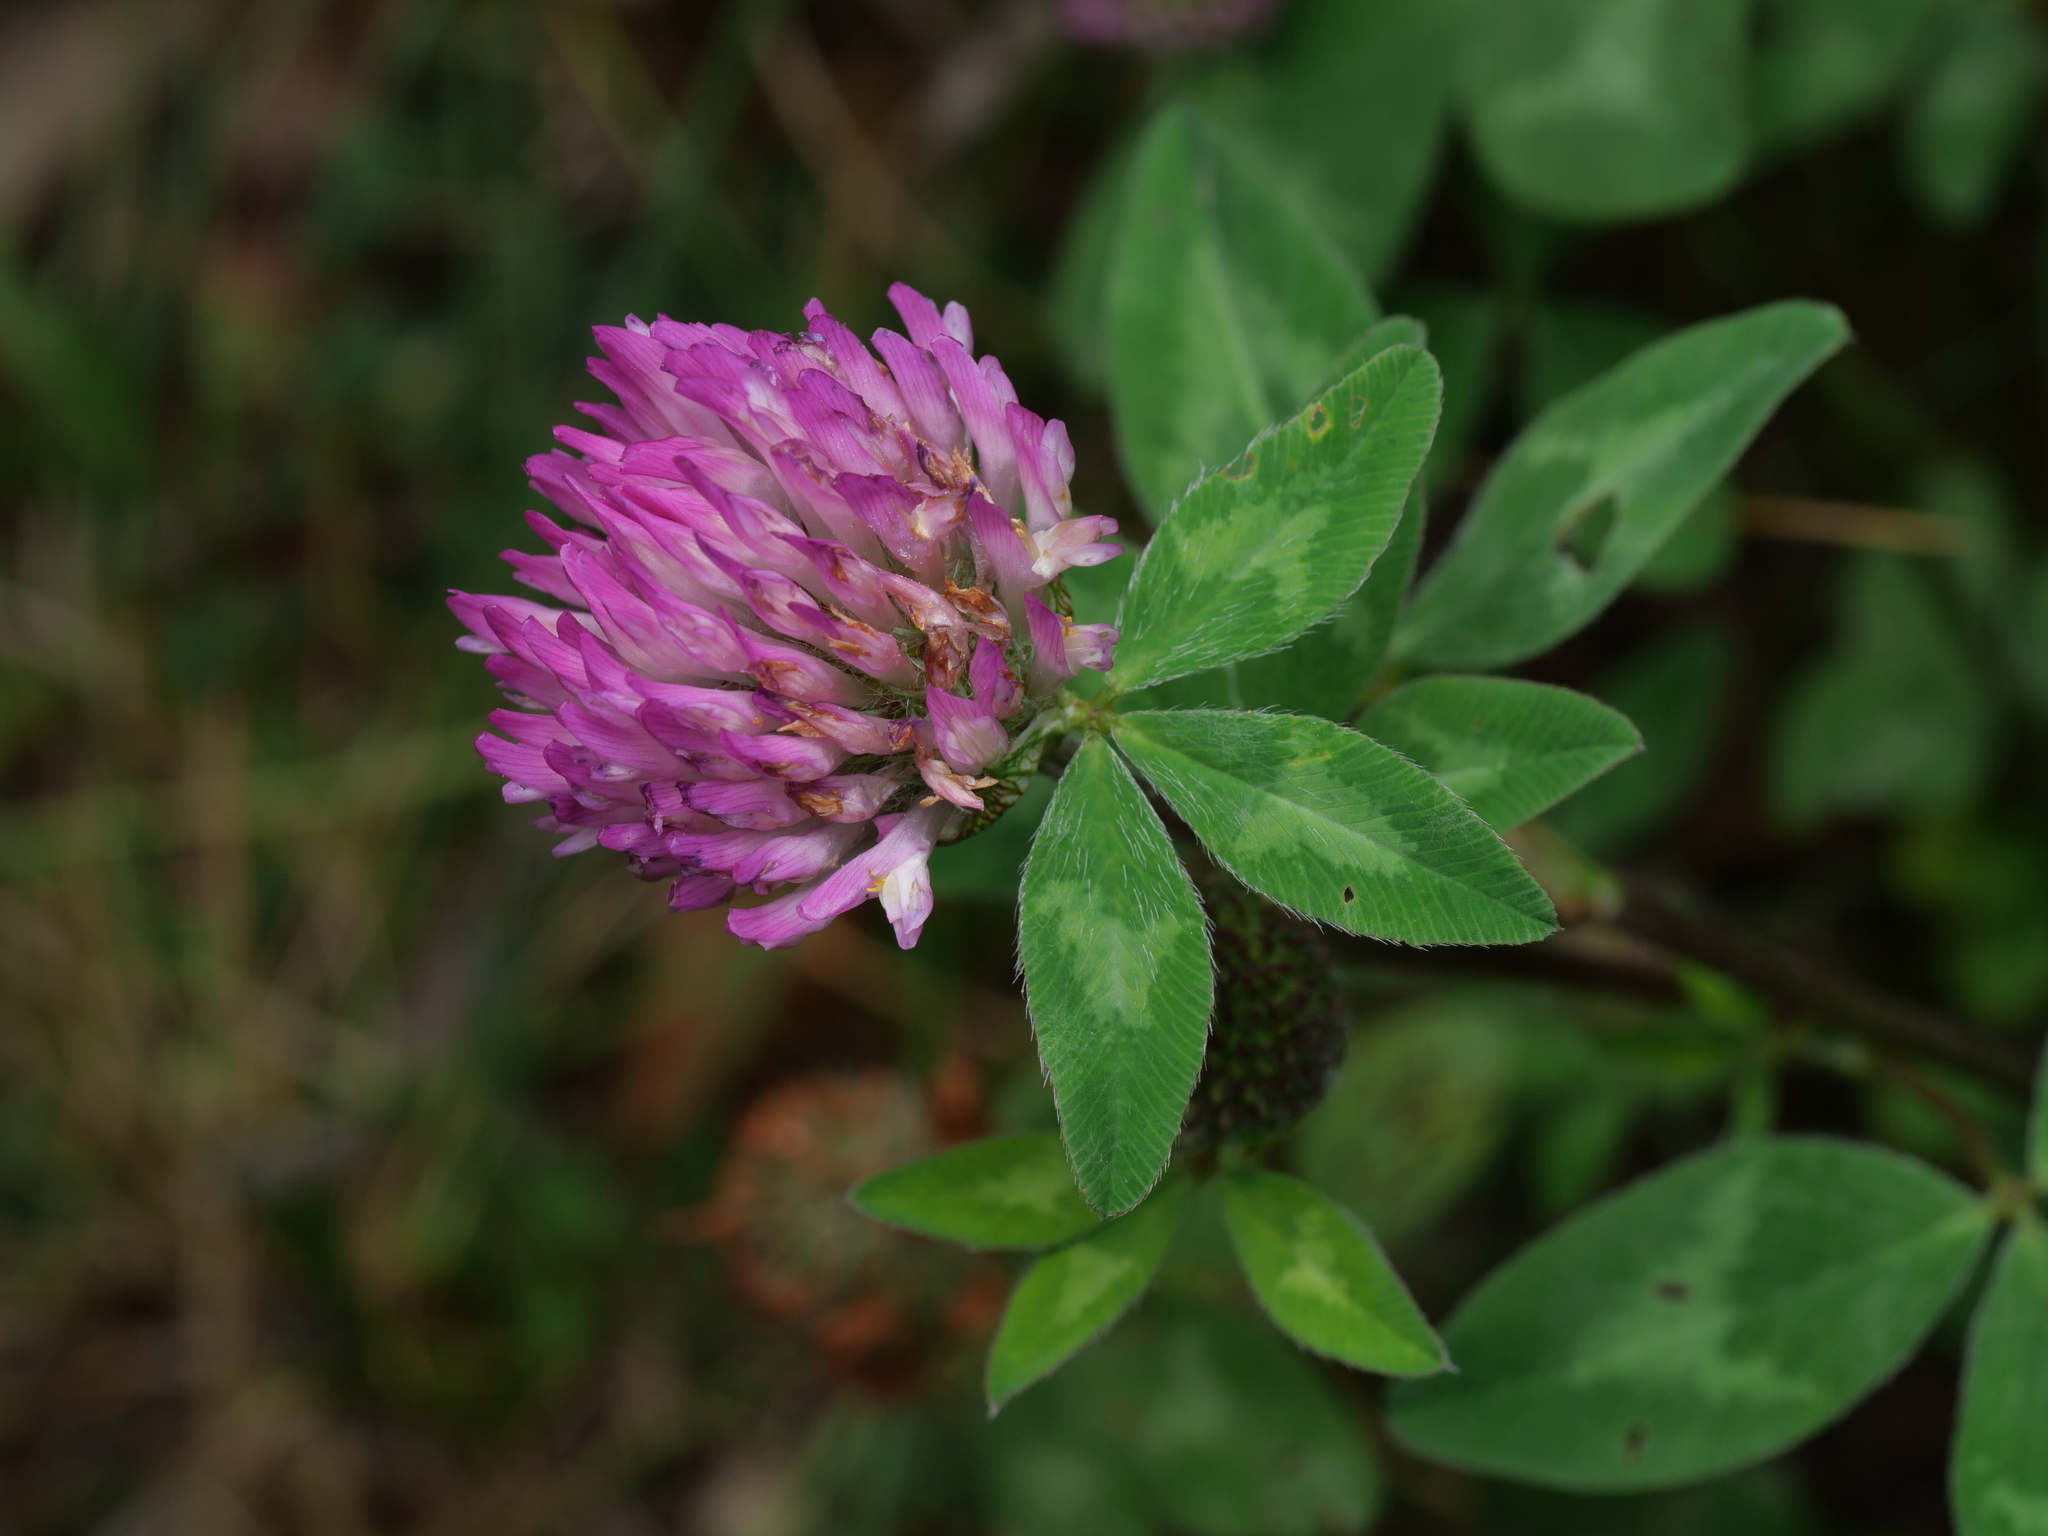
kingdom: Plantae
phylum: Tracheophyta
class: Magnoliopsida
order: Fabales
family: Fabaceae
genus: Trifolium
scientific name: Trifolium pratense
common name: Red clover
